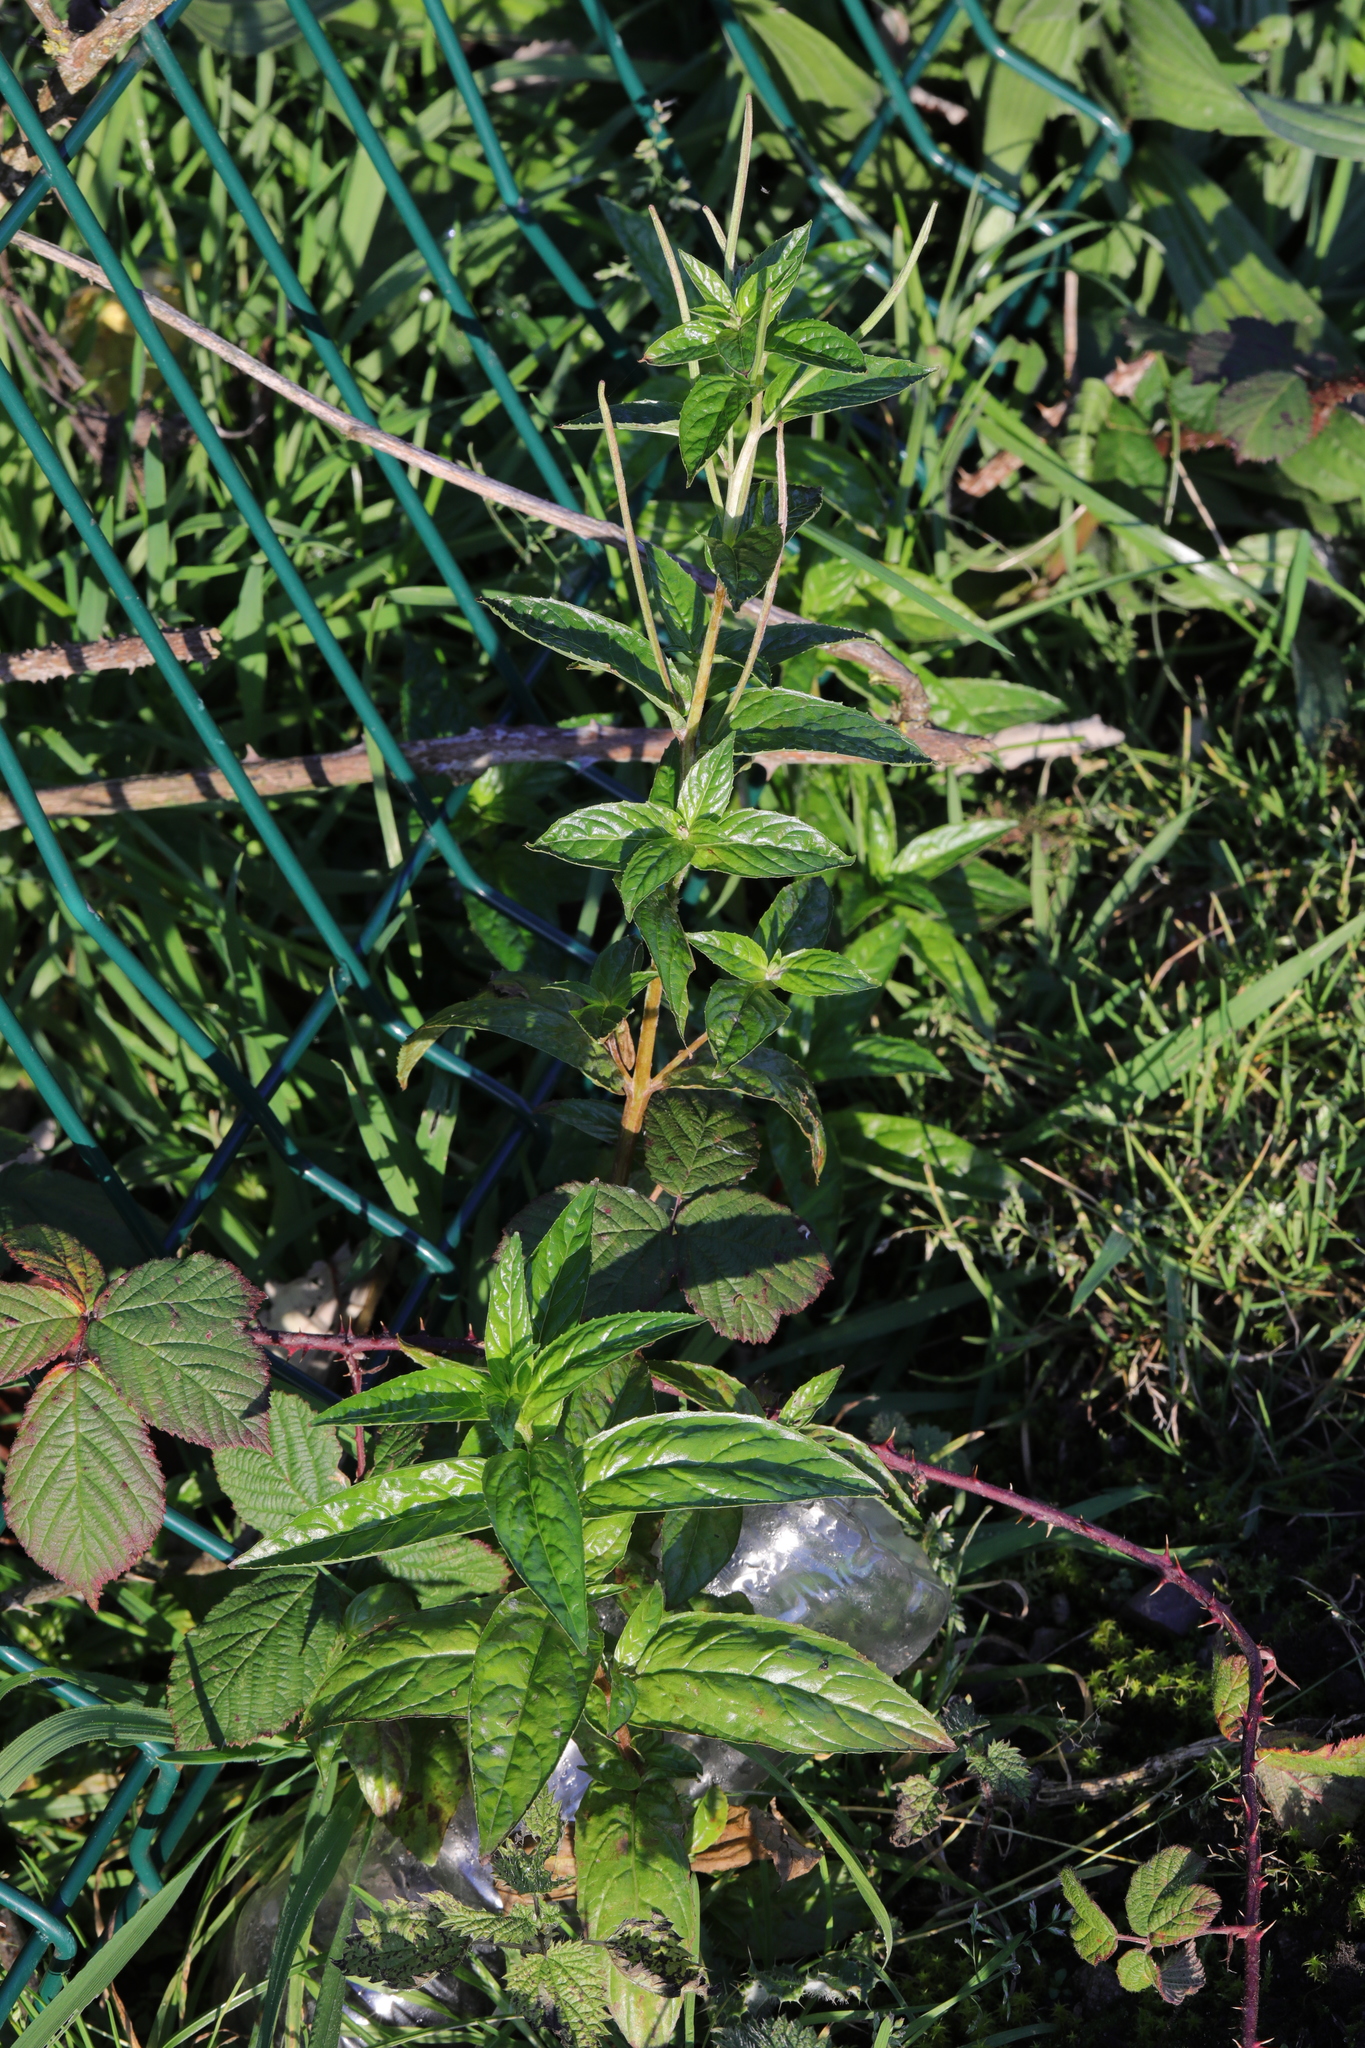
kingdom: Plantae
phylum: Tracheophyta
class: Magnoliopsida
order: Myrtales
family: Onagraceae
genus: Epilobium
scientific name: Epilobium montanum
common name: Broad-leaved willowherb
